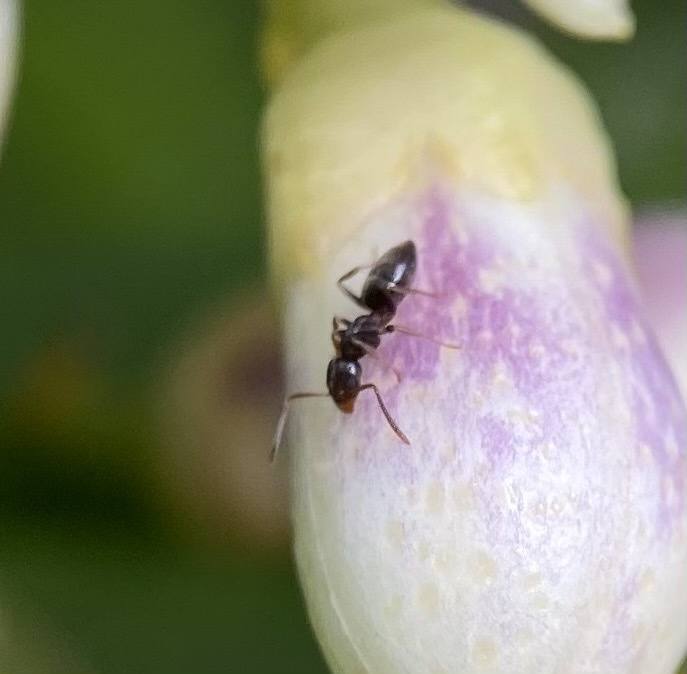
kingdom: Animalia
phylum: Arthropoda
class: Insecta
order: Hymenoptera
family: Formicidae
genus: Tapinoma
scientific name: Tapinoma sessile
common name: Odorous house ant
